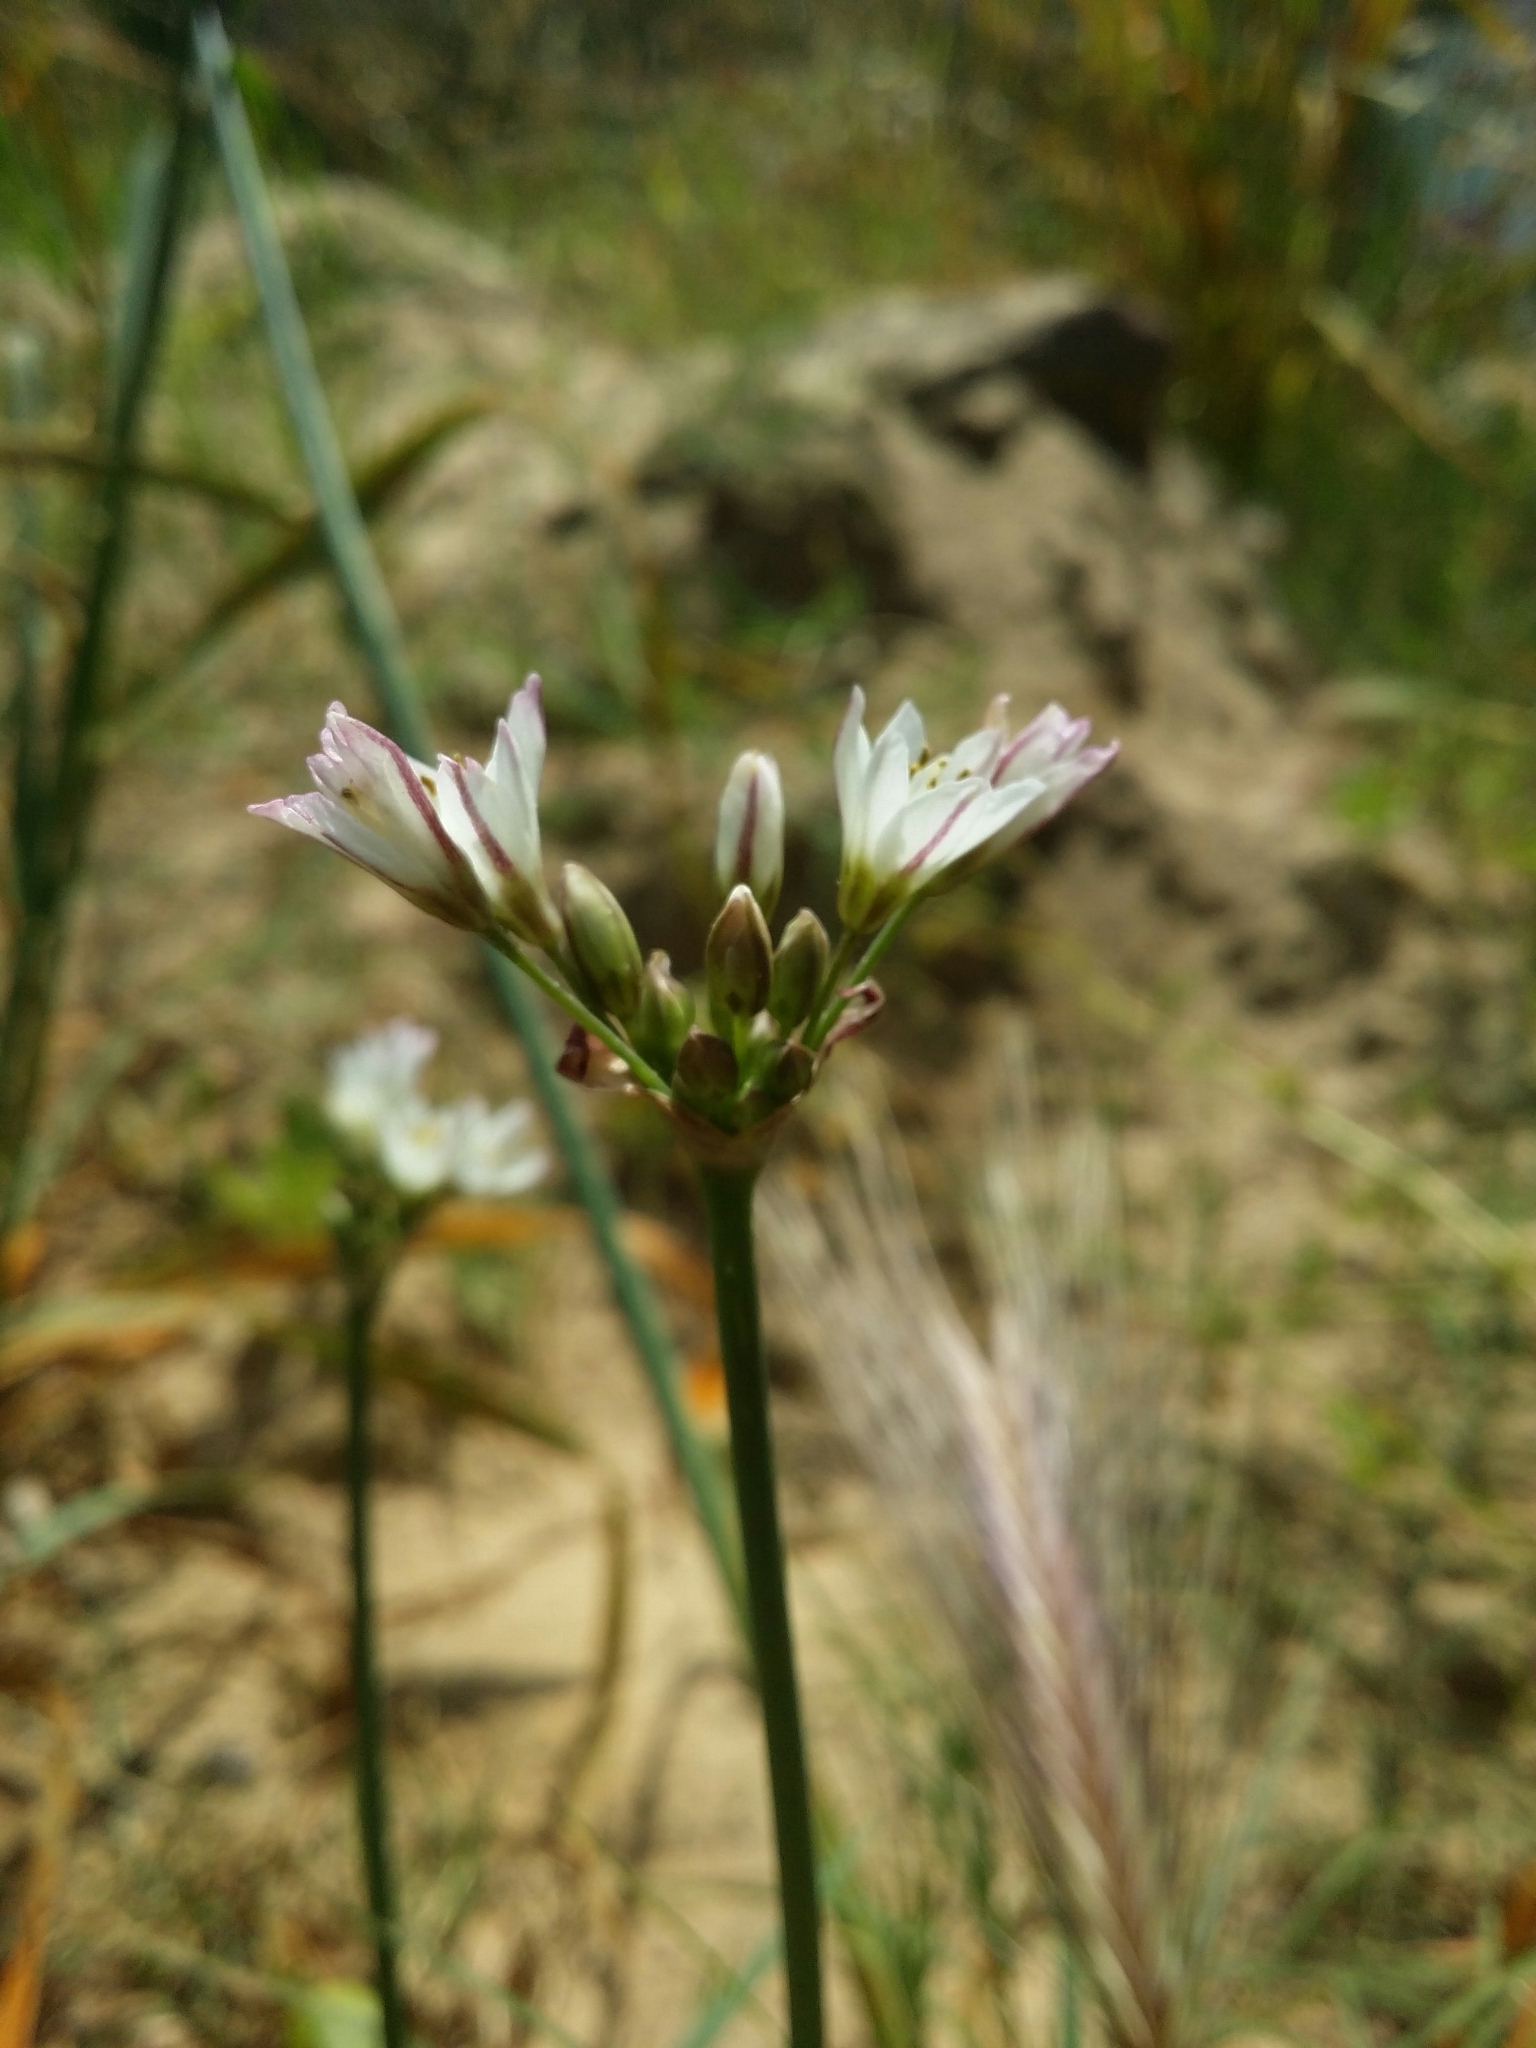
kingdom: Plantae
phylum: Tracheophyta
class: Liliopsida
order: Asparagales
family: Amaryllidaceae
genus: Nothoscordum
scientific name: Nothoscordum gracile
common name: Slender false garlic
